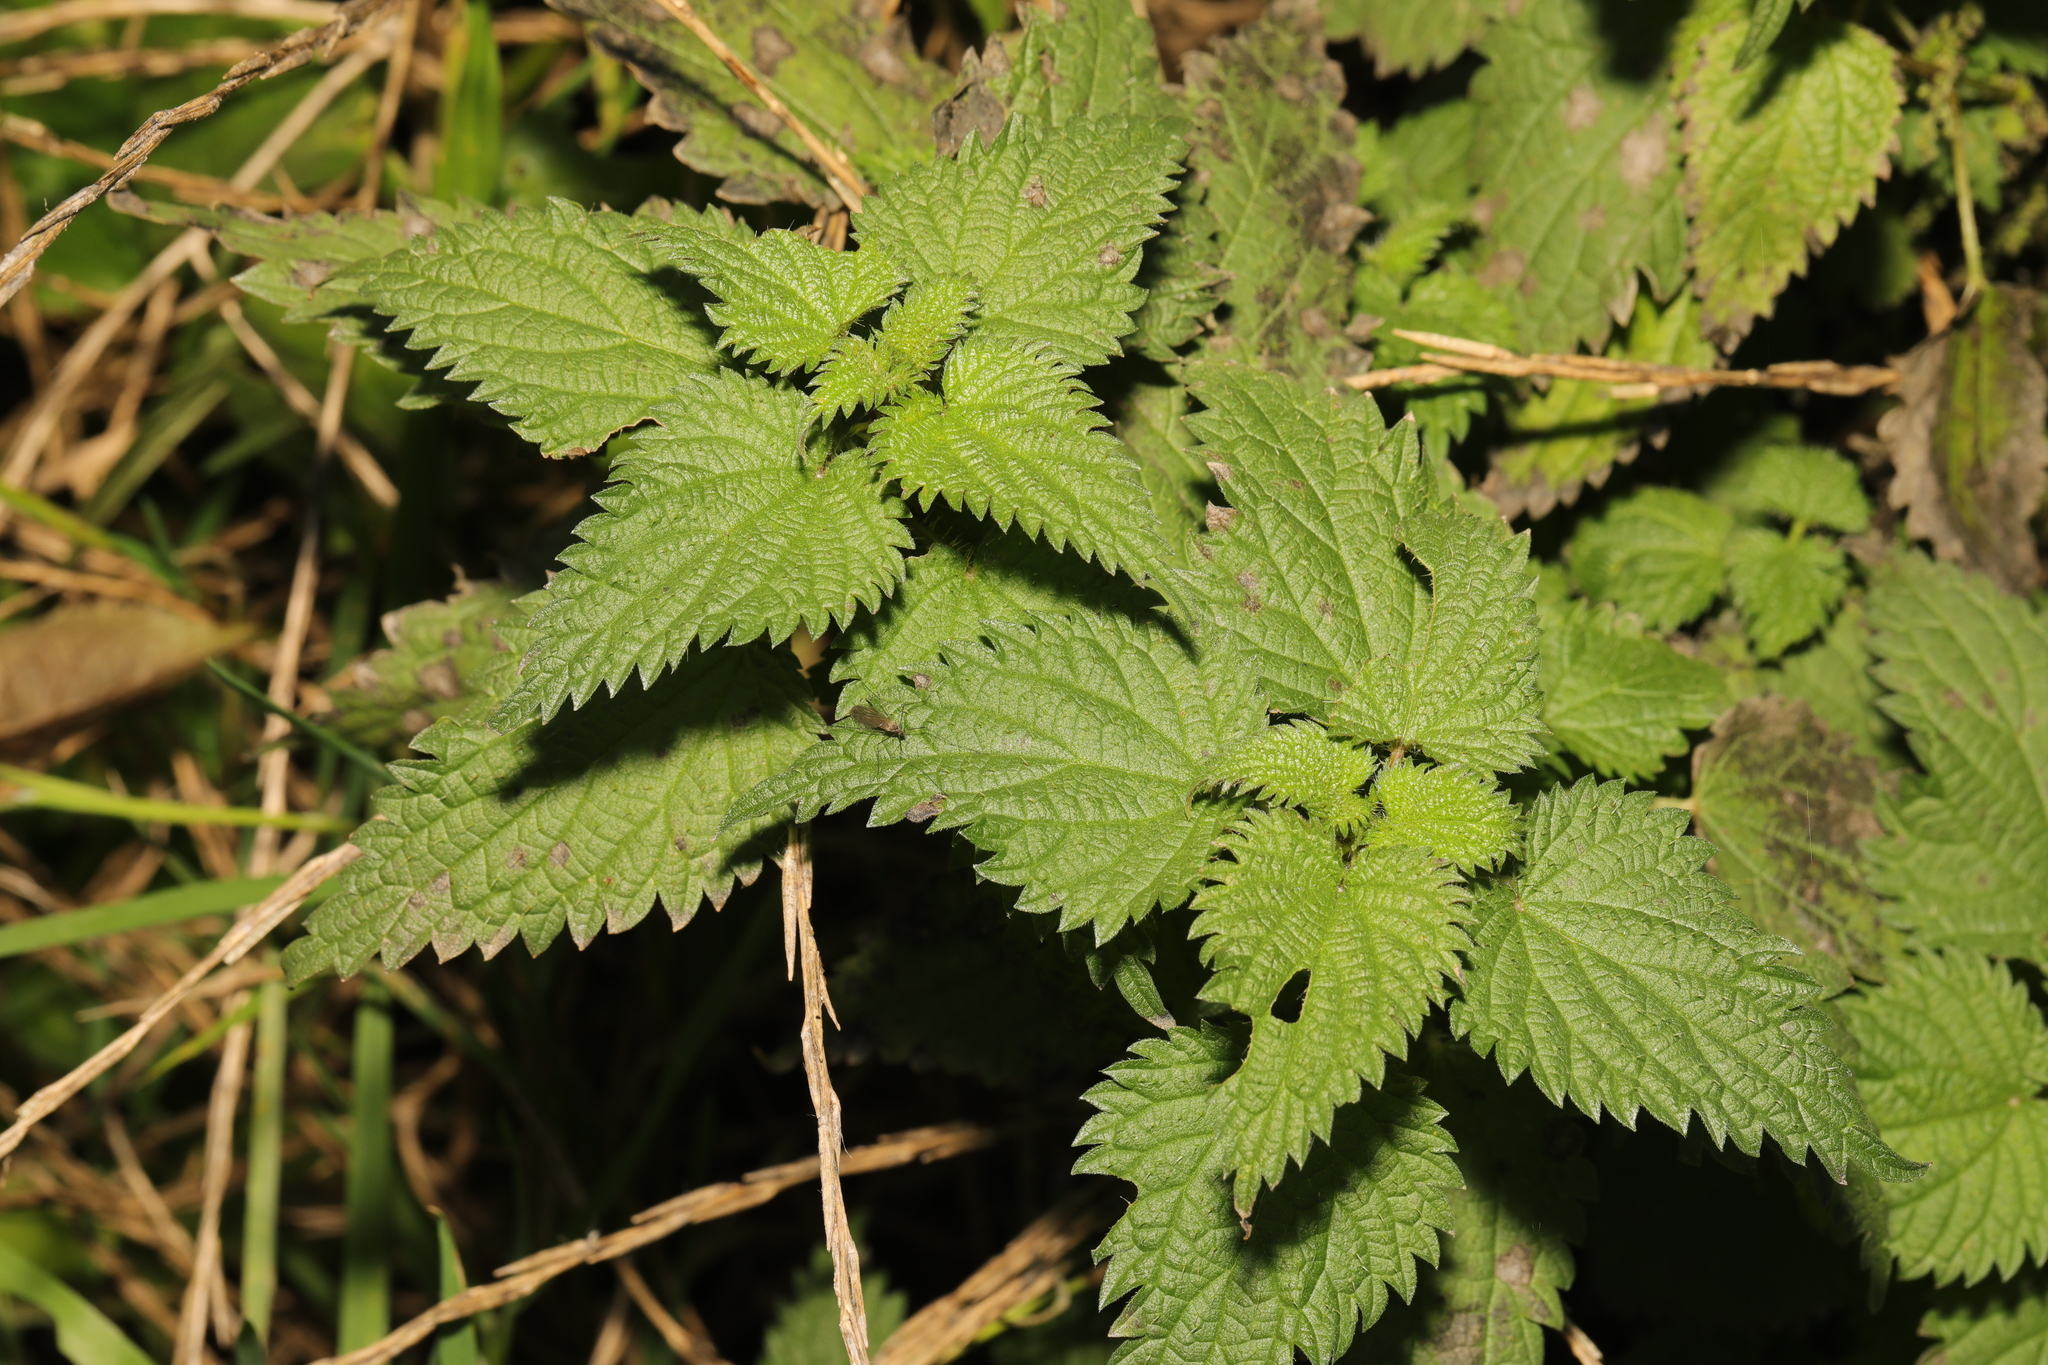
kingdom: Plantae
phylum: Tracheophyta
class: Magnoliopsida
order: Rosales
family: Urticaceae
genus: Urtica
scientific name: Urtica dioica
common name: Common nettle
